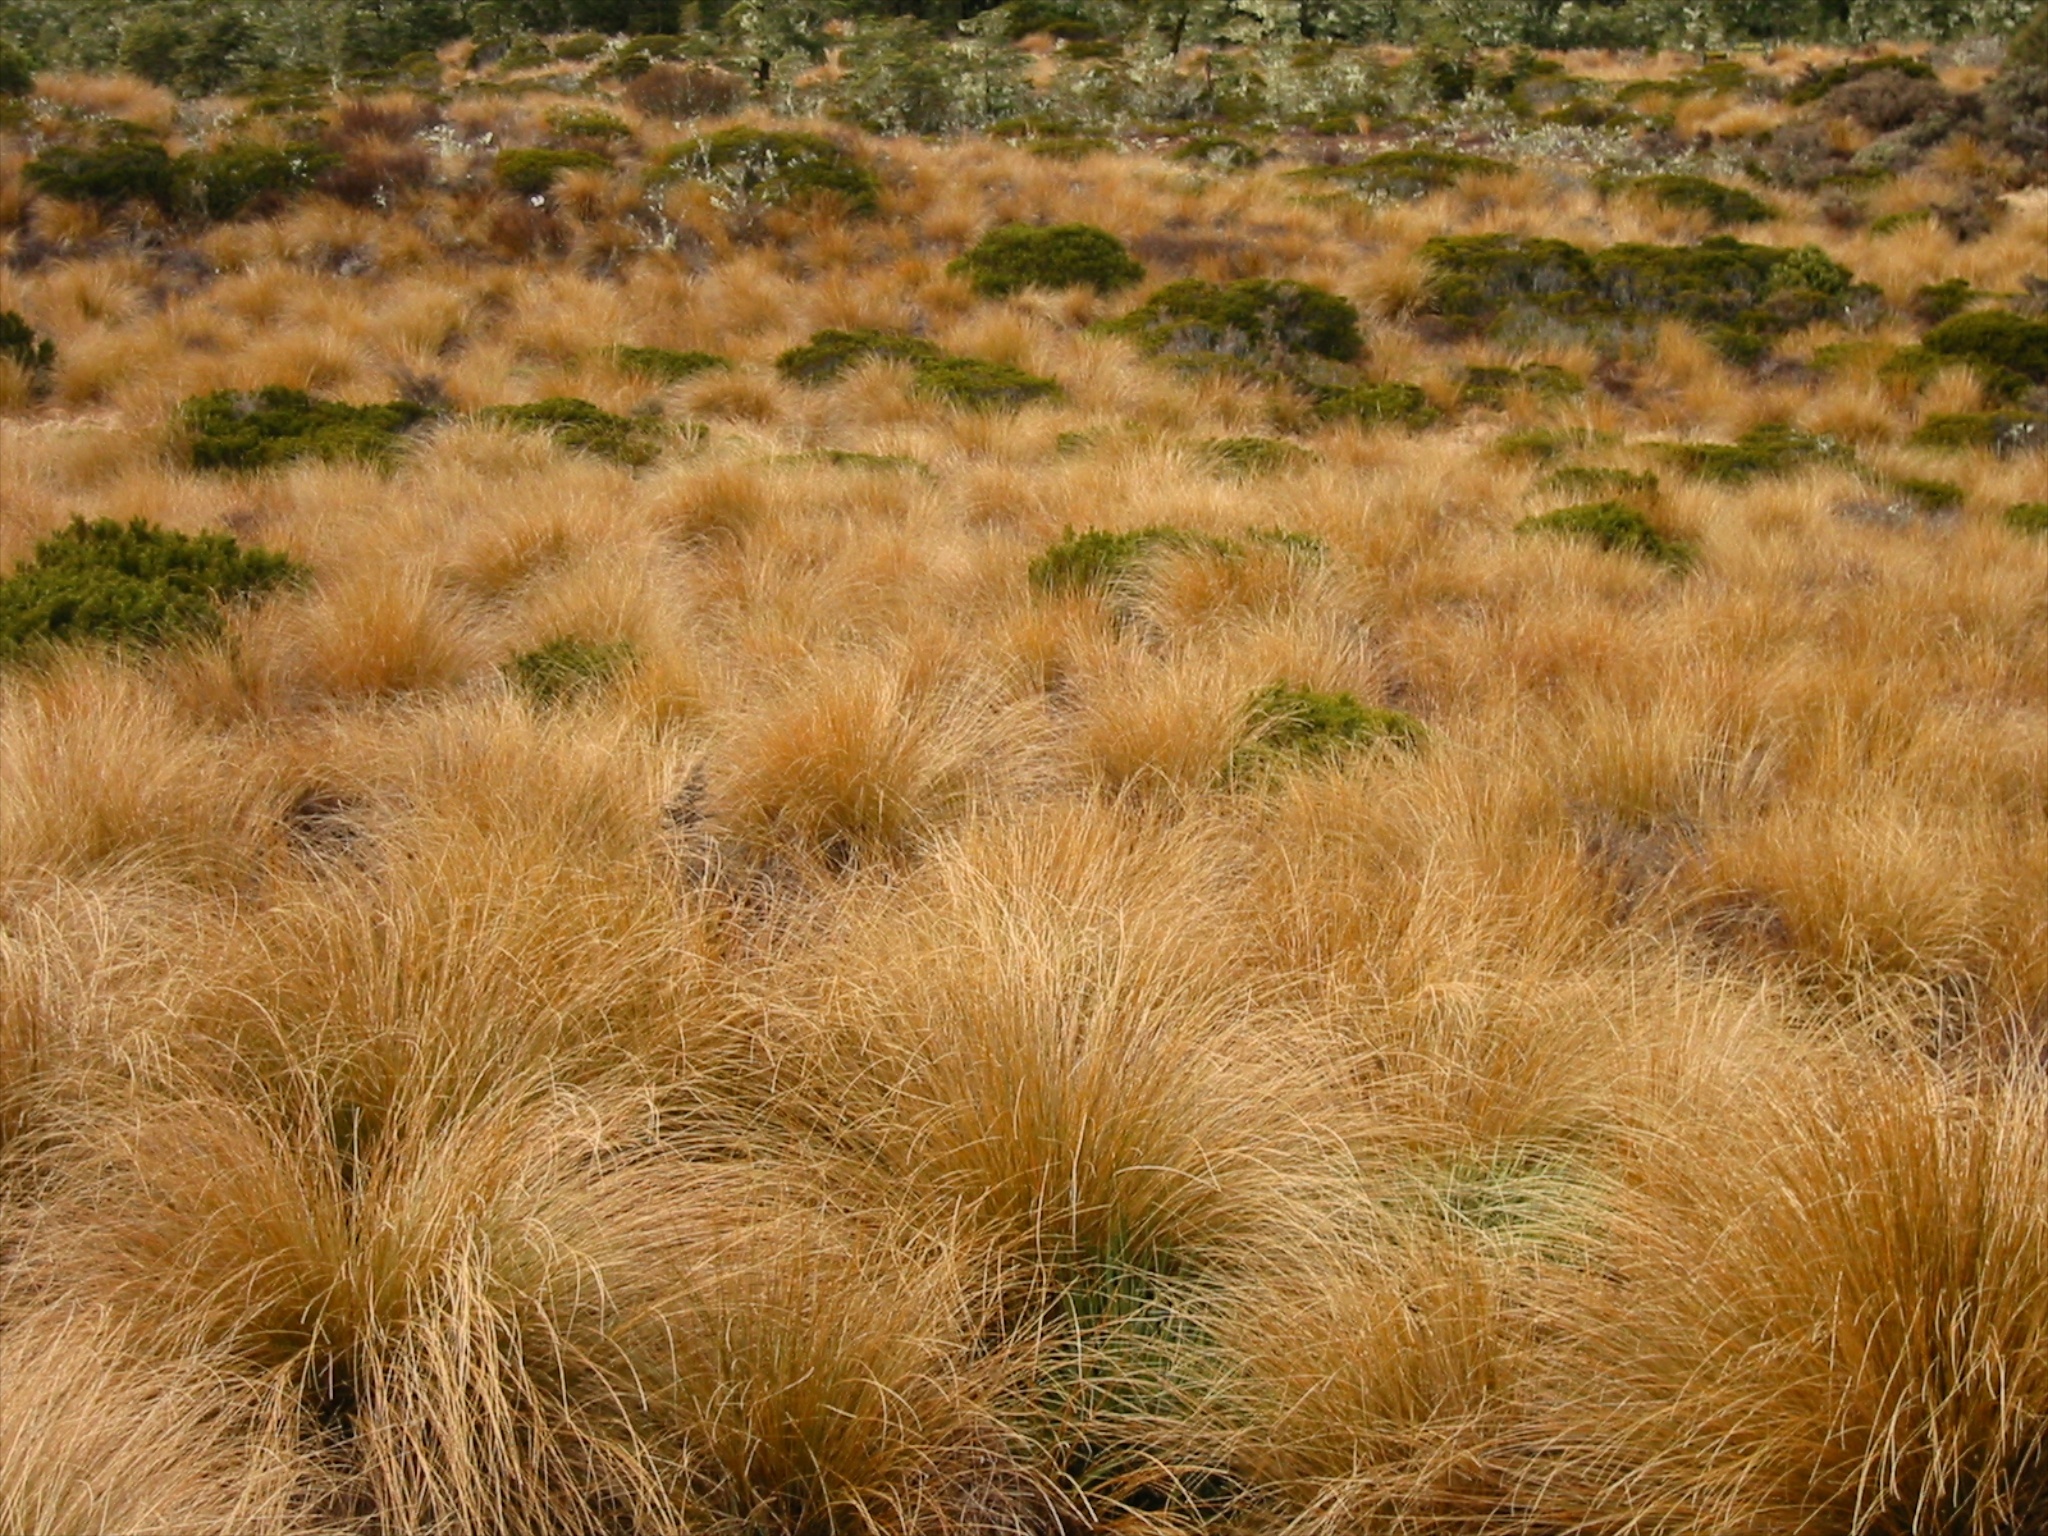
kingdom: Plantae
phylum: Tracheophyta
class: Liliopsida
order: Poales
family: Poaceae
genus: Chionochloa
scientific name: Chionochloa rubra
